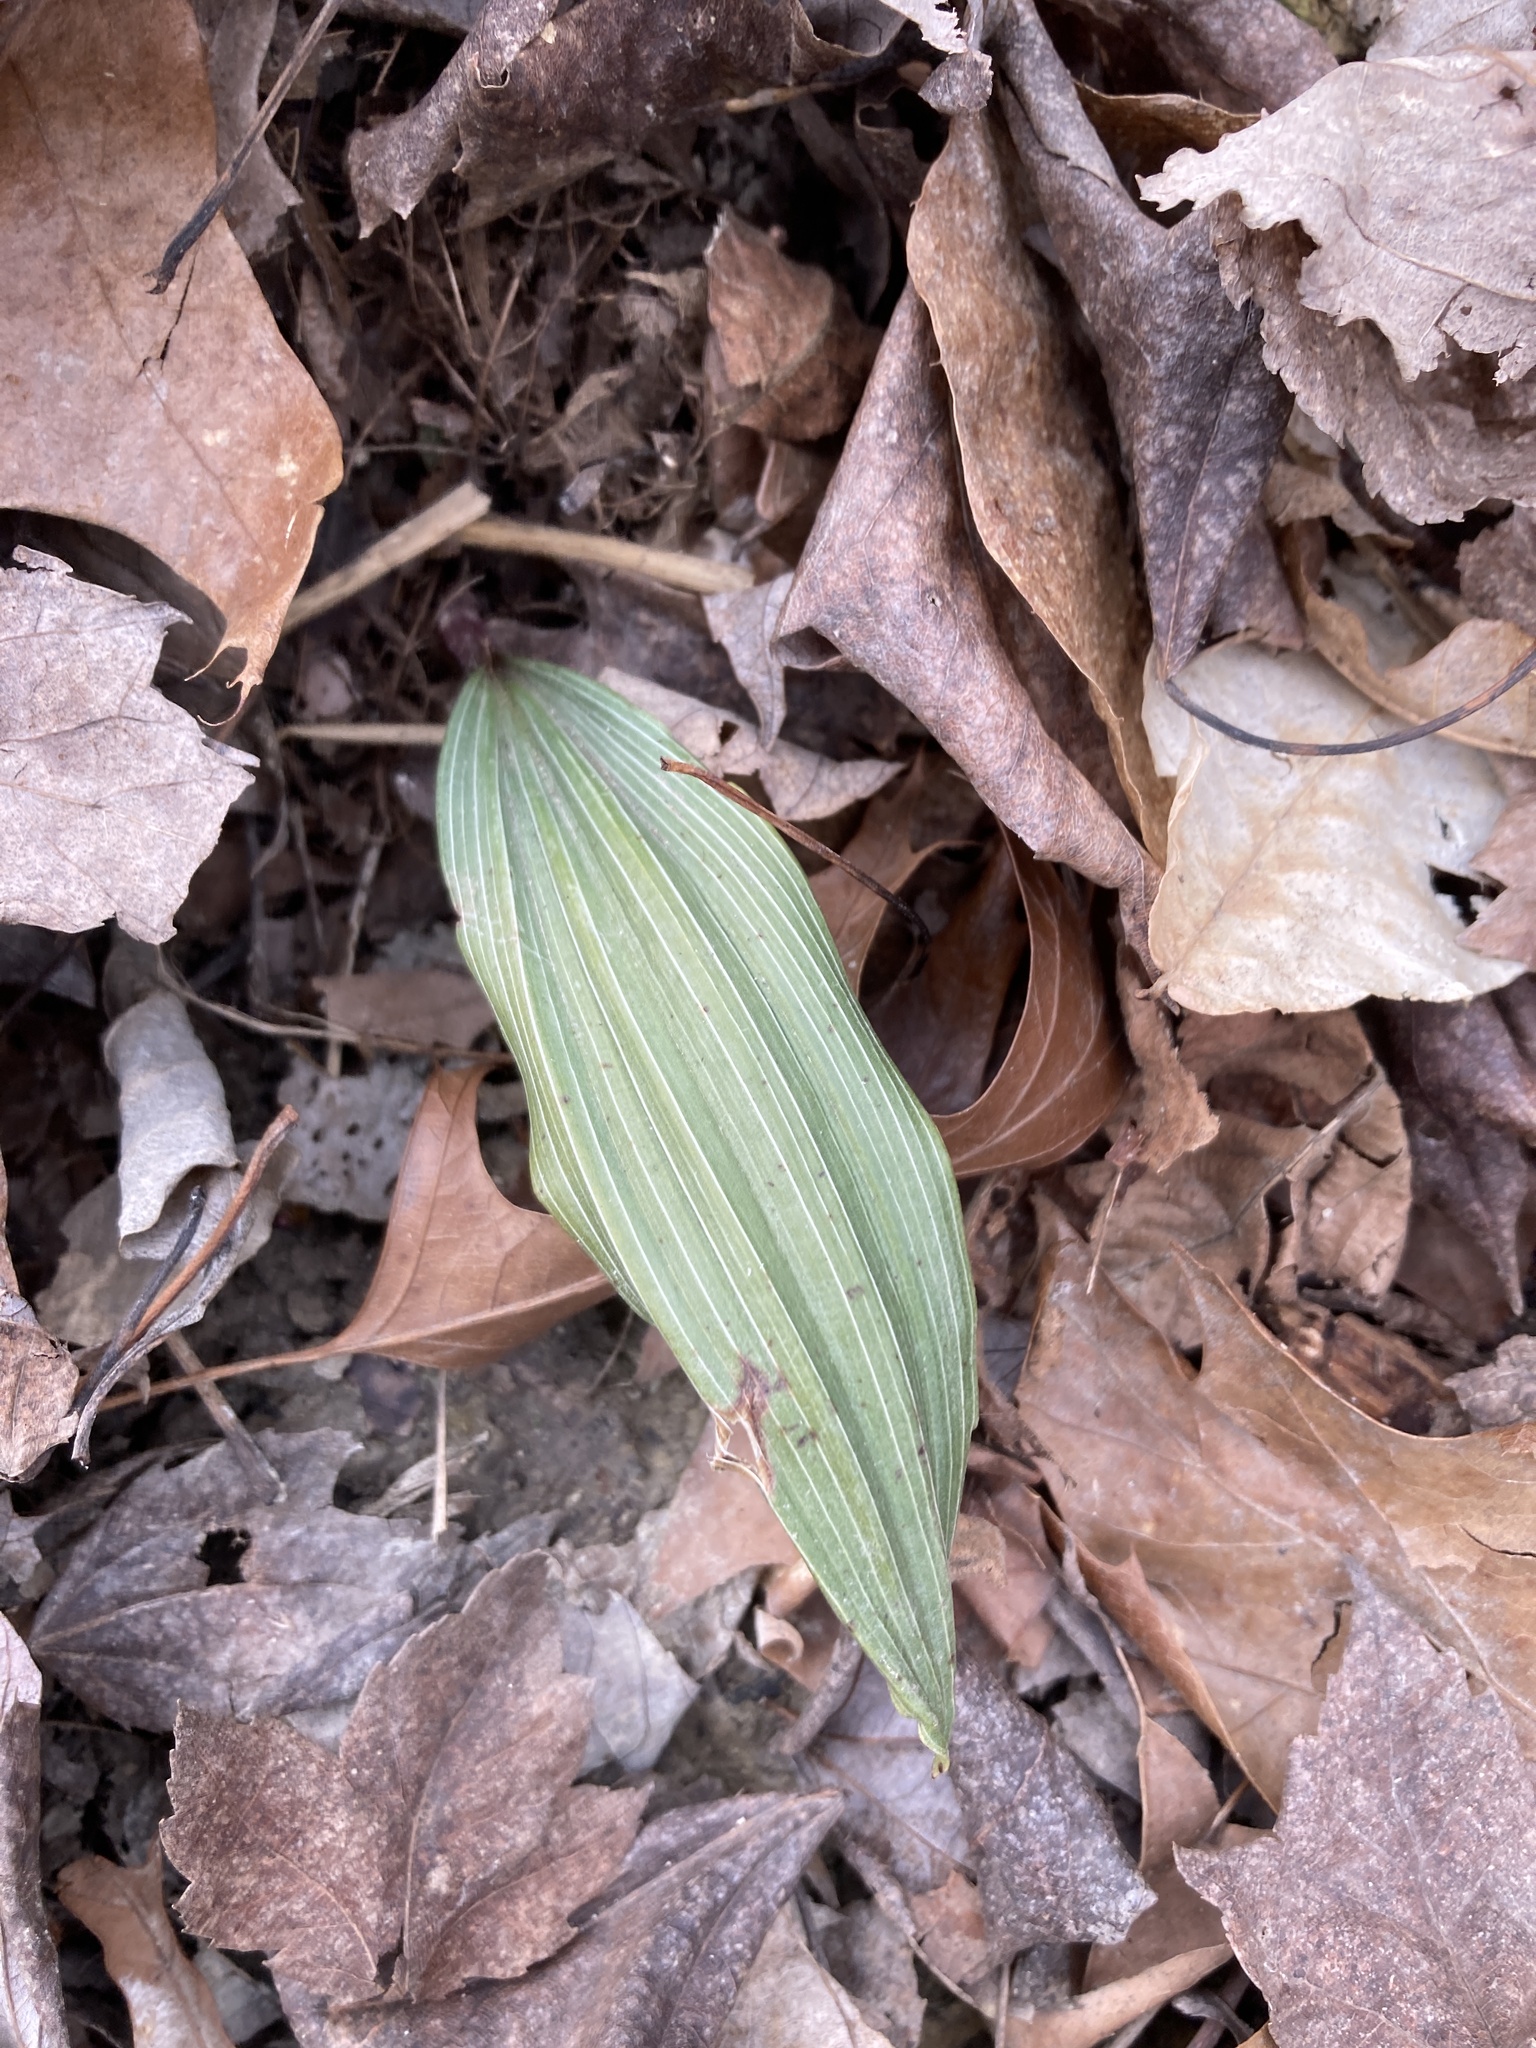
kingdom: Plantae
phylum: Tracheophyta
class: Liliopsida
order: Asparagales
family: Orchidaceae
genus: Aplectrum
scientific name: Aplectrum hyemale
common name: Adam-and-eve
